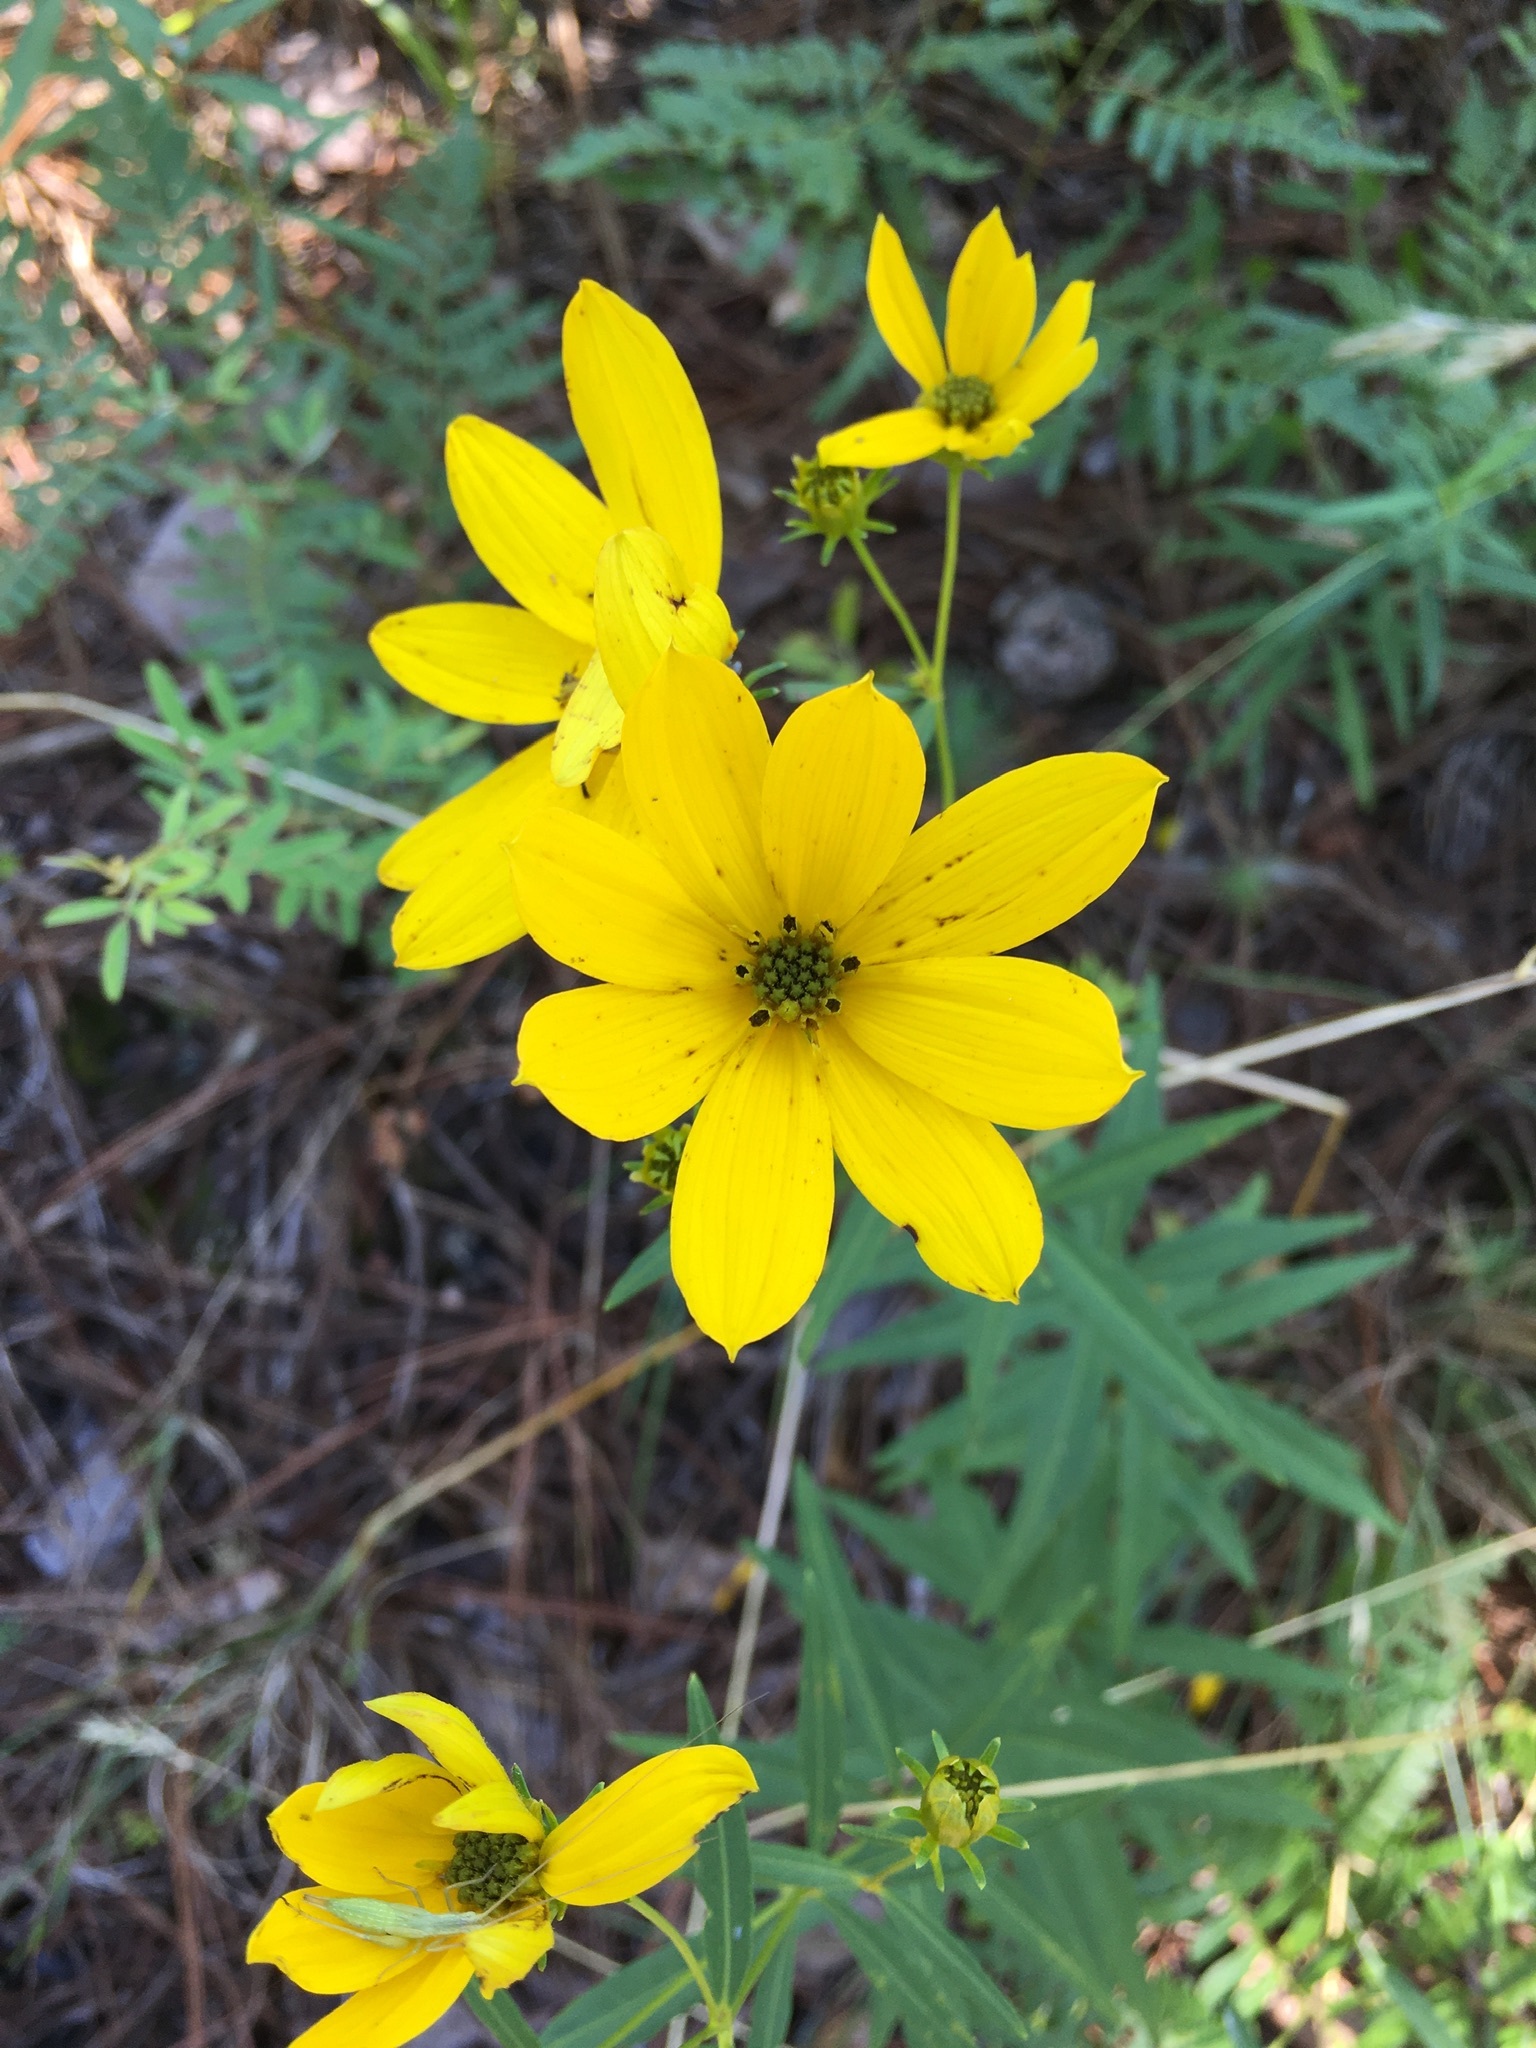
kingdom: Plantae
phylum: Tracheophyta
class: Magnoliopsida
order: Asterales
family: Asteraceae
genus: Coreopsis
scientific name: Coreopsis major
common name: Forest tickseed
